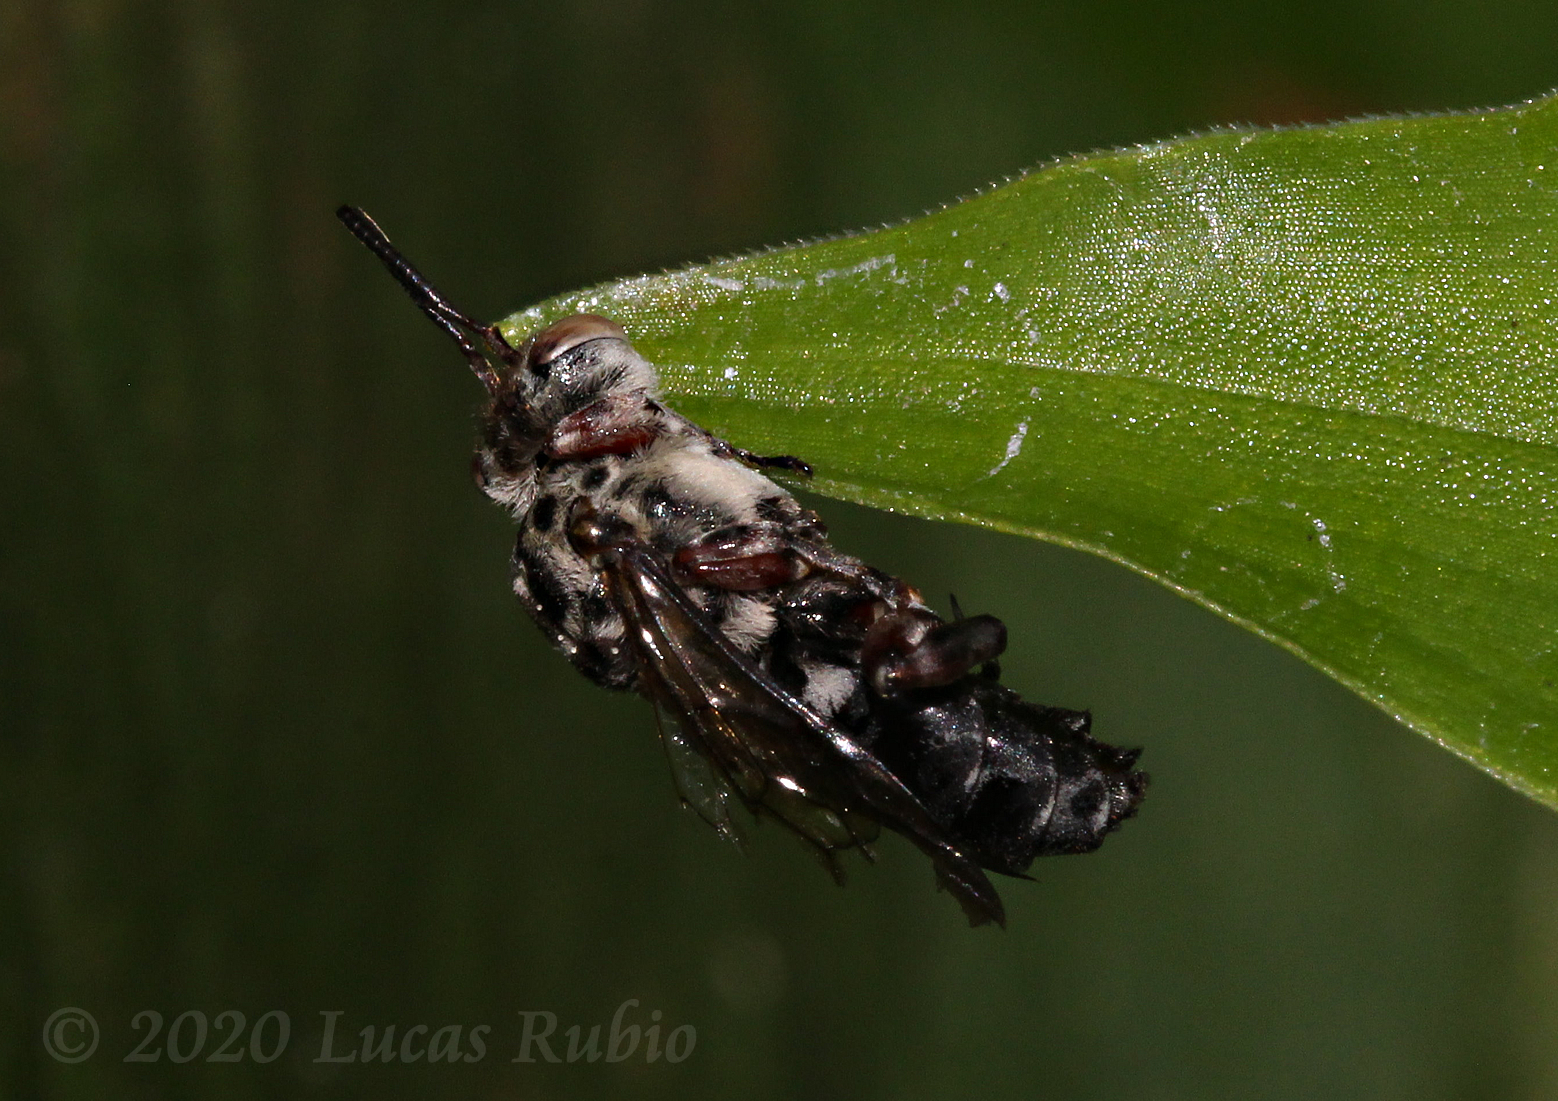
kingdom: Animalia
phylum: Arthropoda
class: Insecta
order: Hymenoptera
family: Apidae
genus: Leiopodus
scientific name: Leiopodus lacertinus
